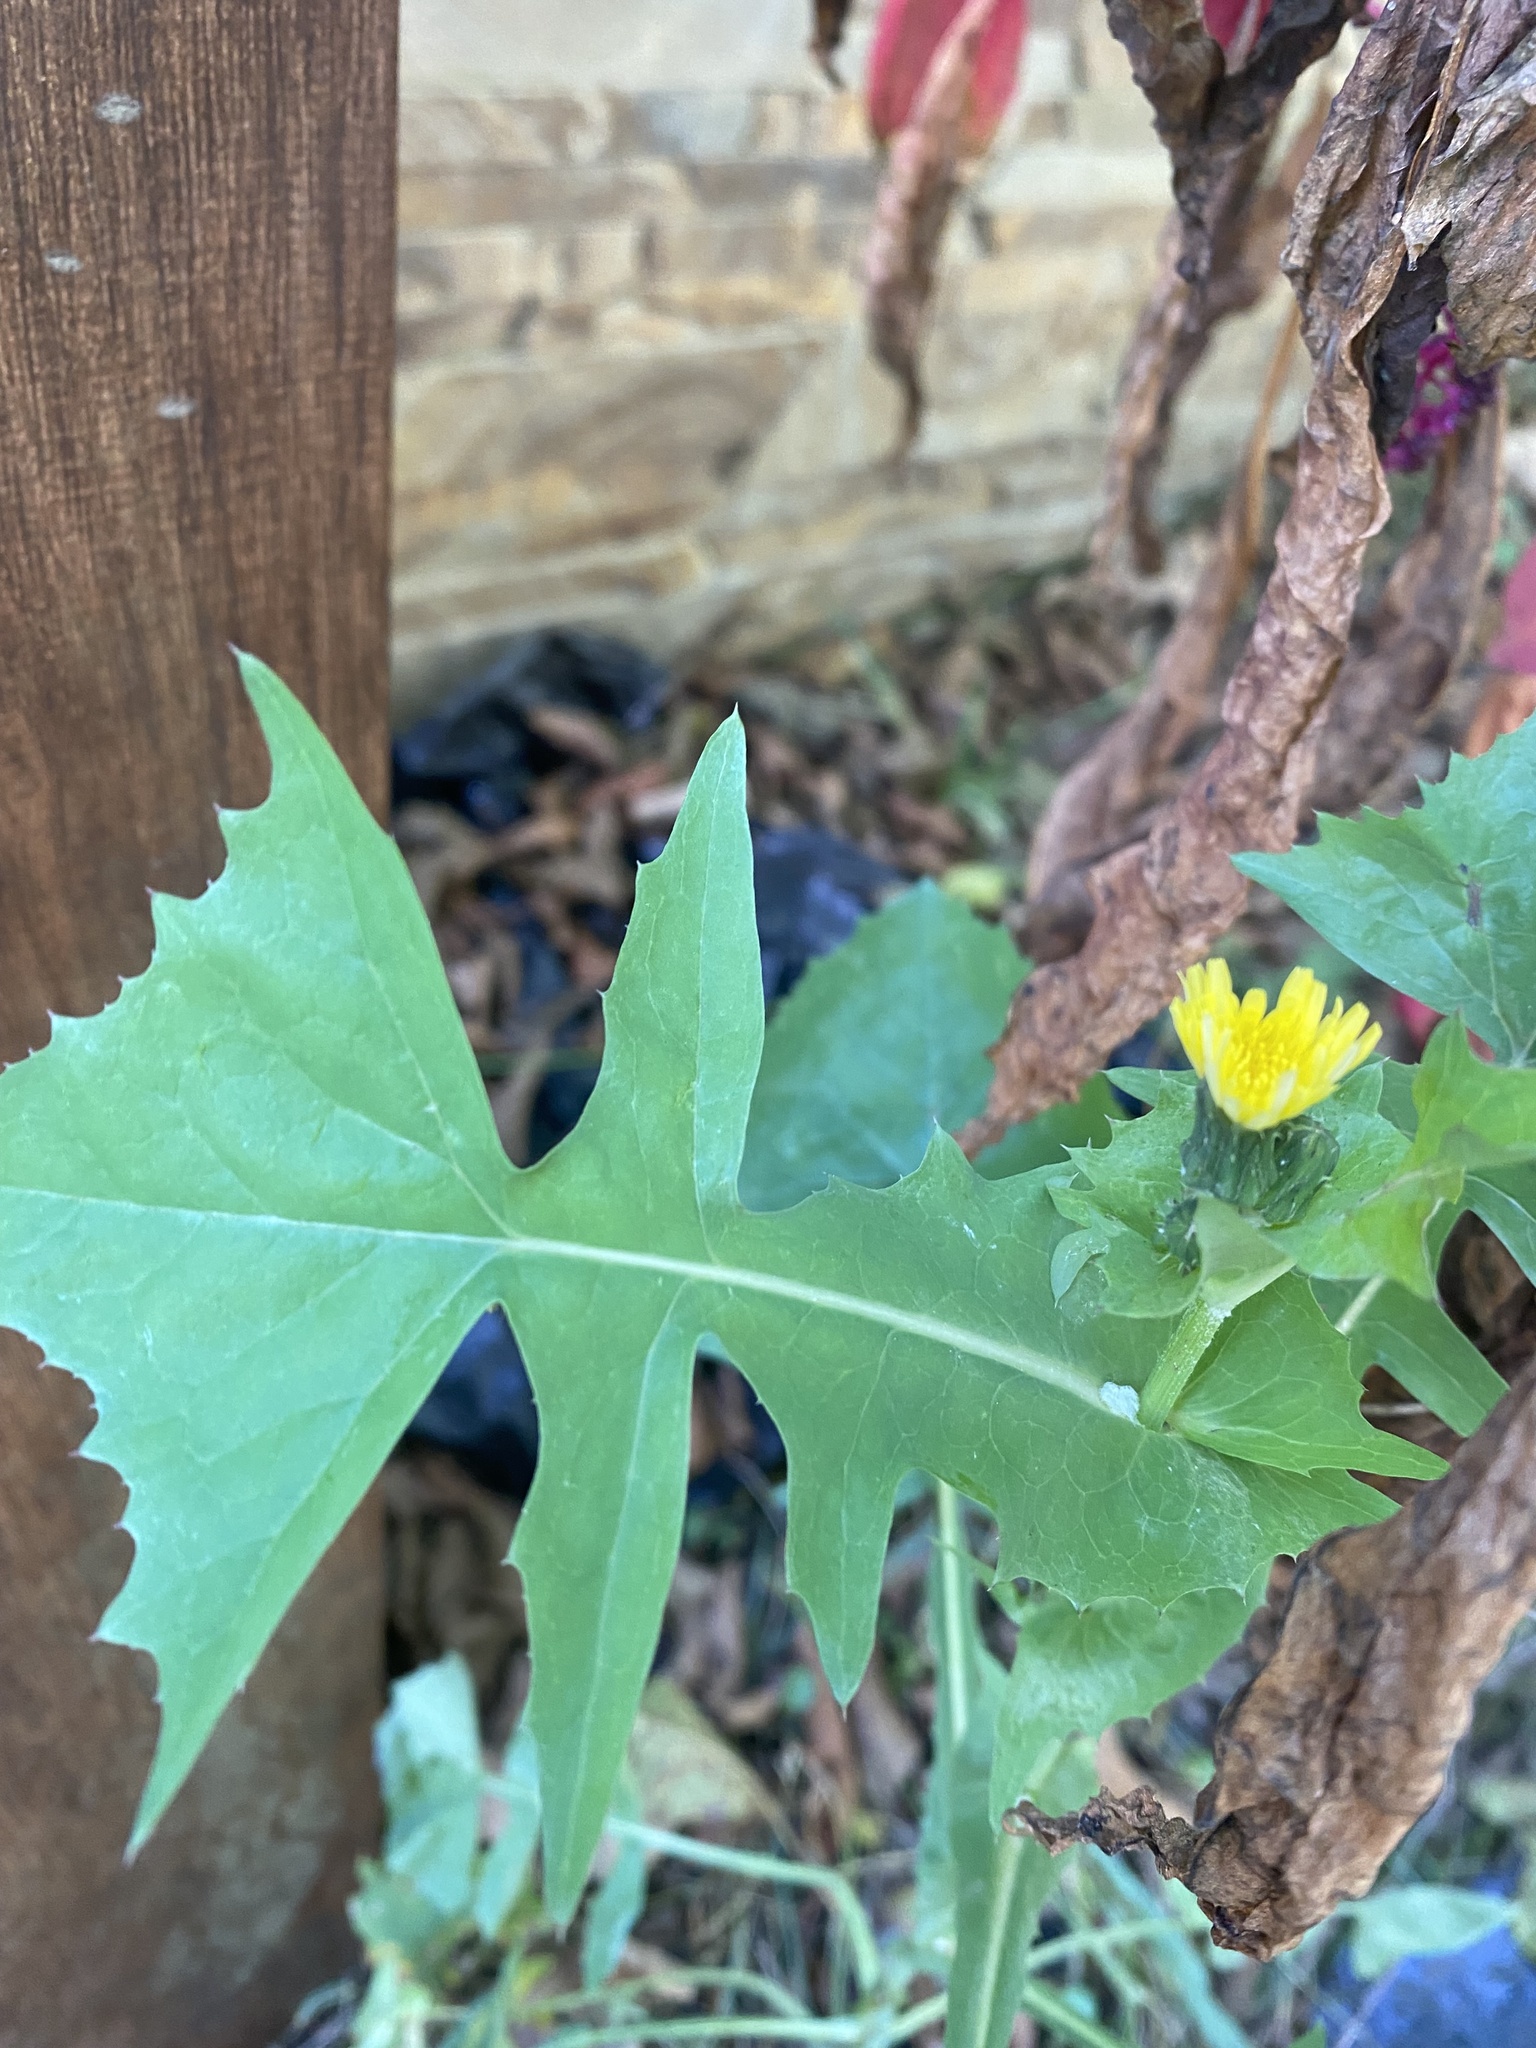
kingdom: Plantae
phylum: Tracheophyta
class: Magnoliopsida
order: Asterales
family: Asteraceae
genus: Sonchus
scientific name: Sonchus oleraceus
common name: Common sowthistle
